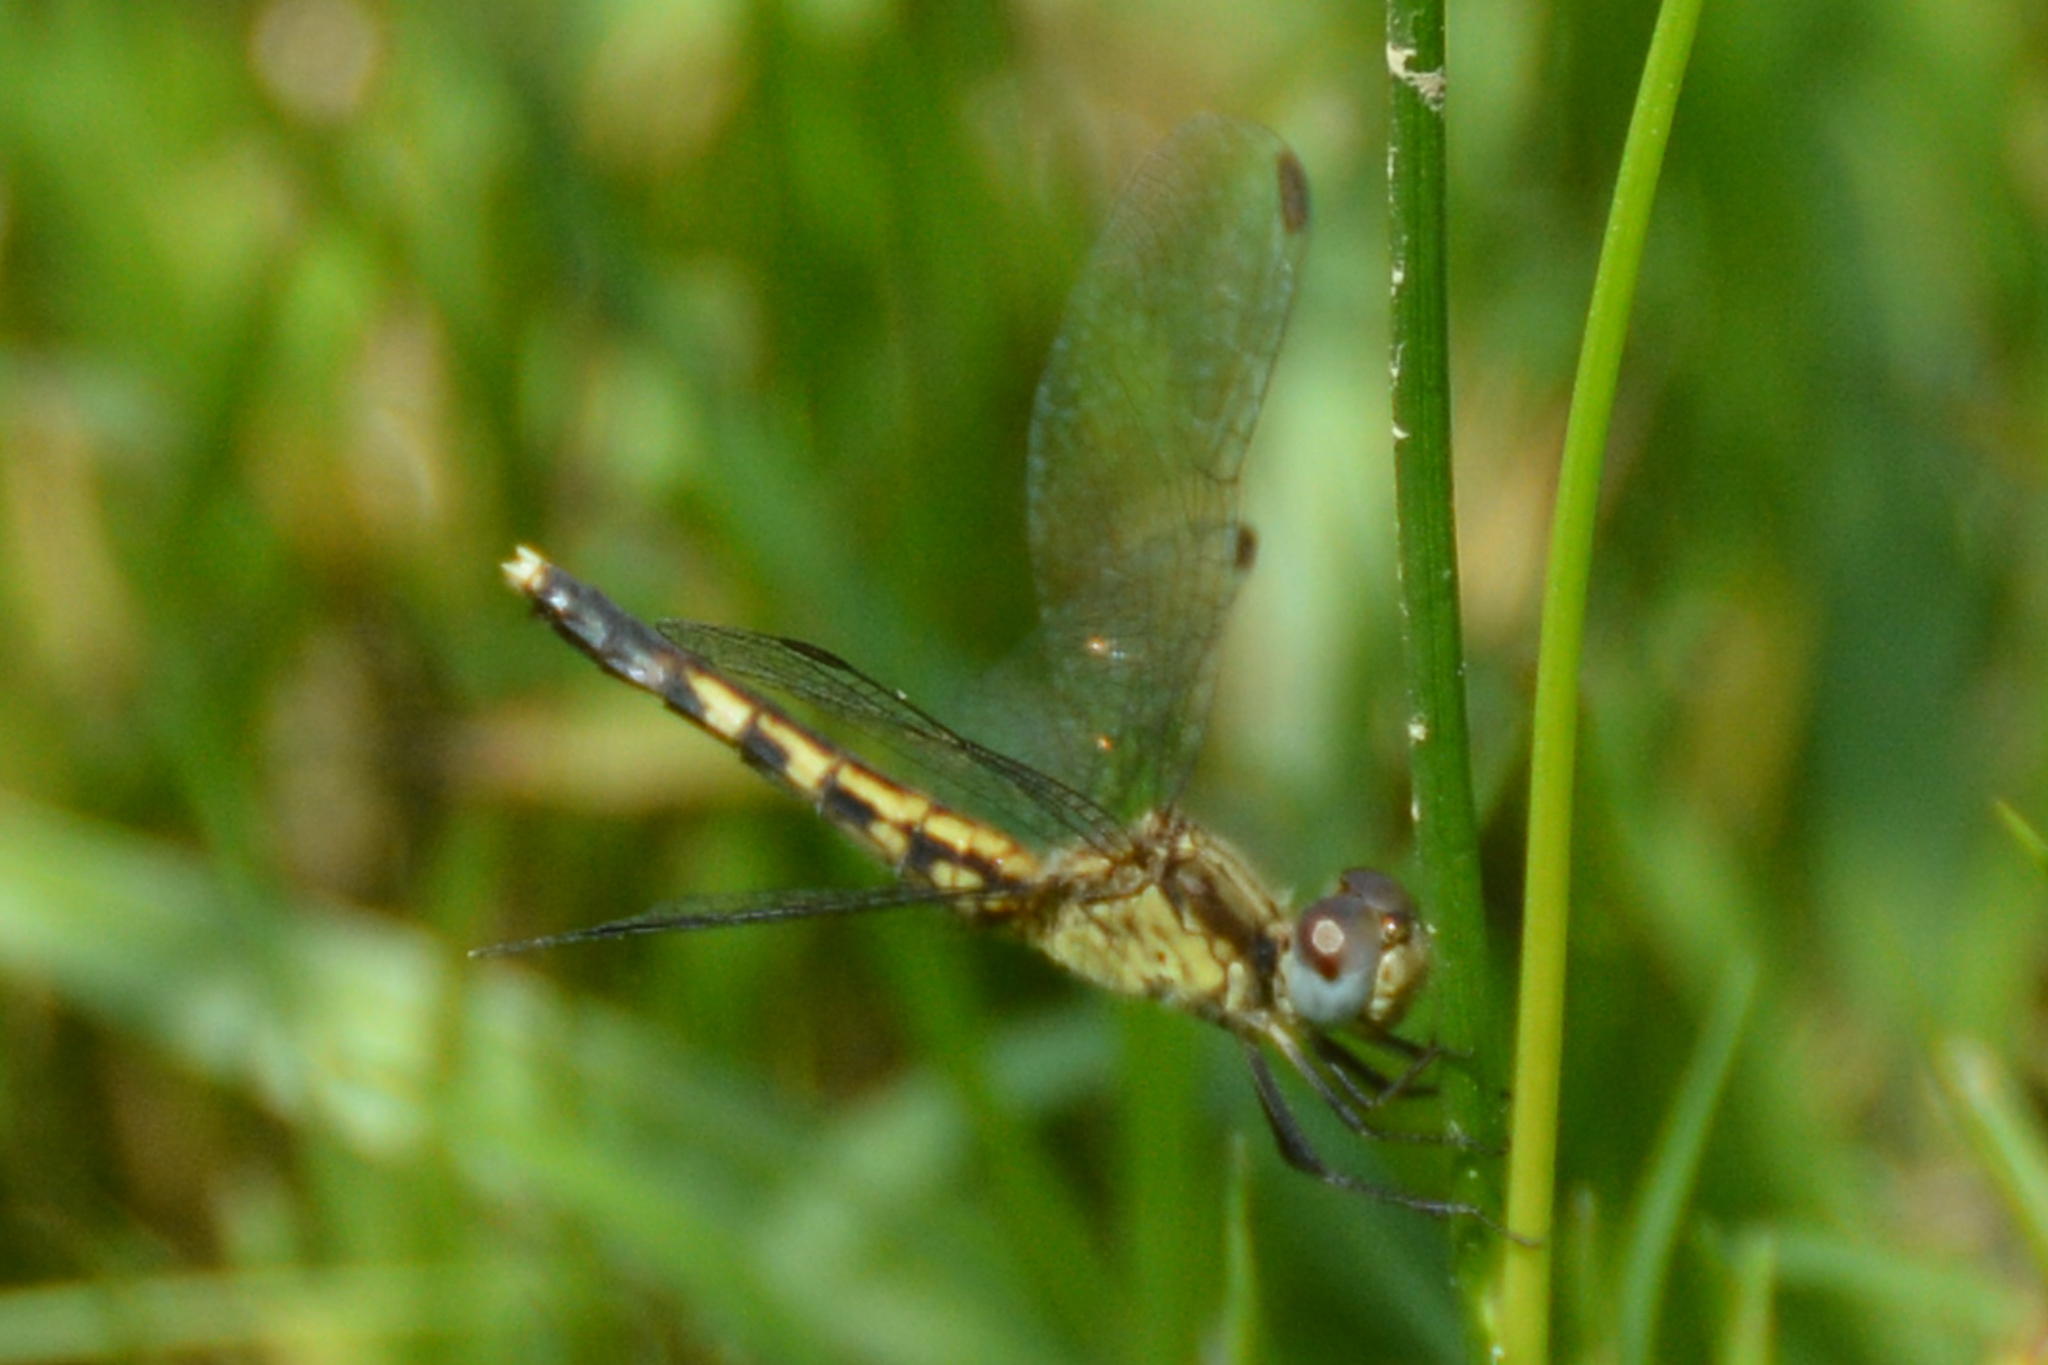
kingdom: Animalia
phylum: Arthropoda
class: Insecta
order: Odonata
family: Libellulidae
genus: Erythrodiplax
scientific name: Erythrodiplax minuscula
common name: Little blue dragonlet
